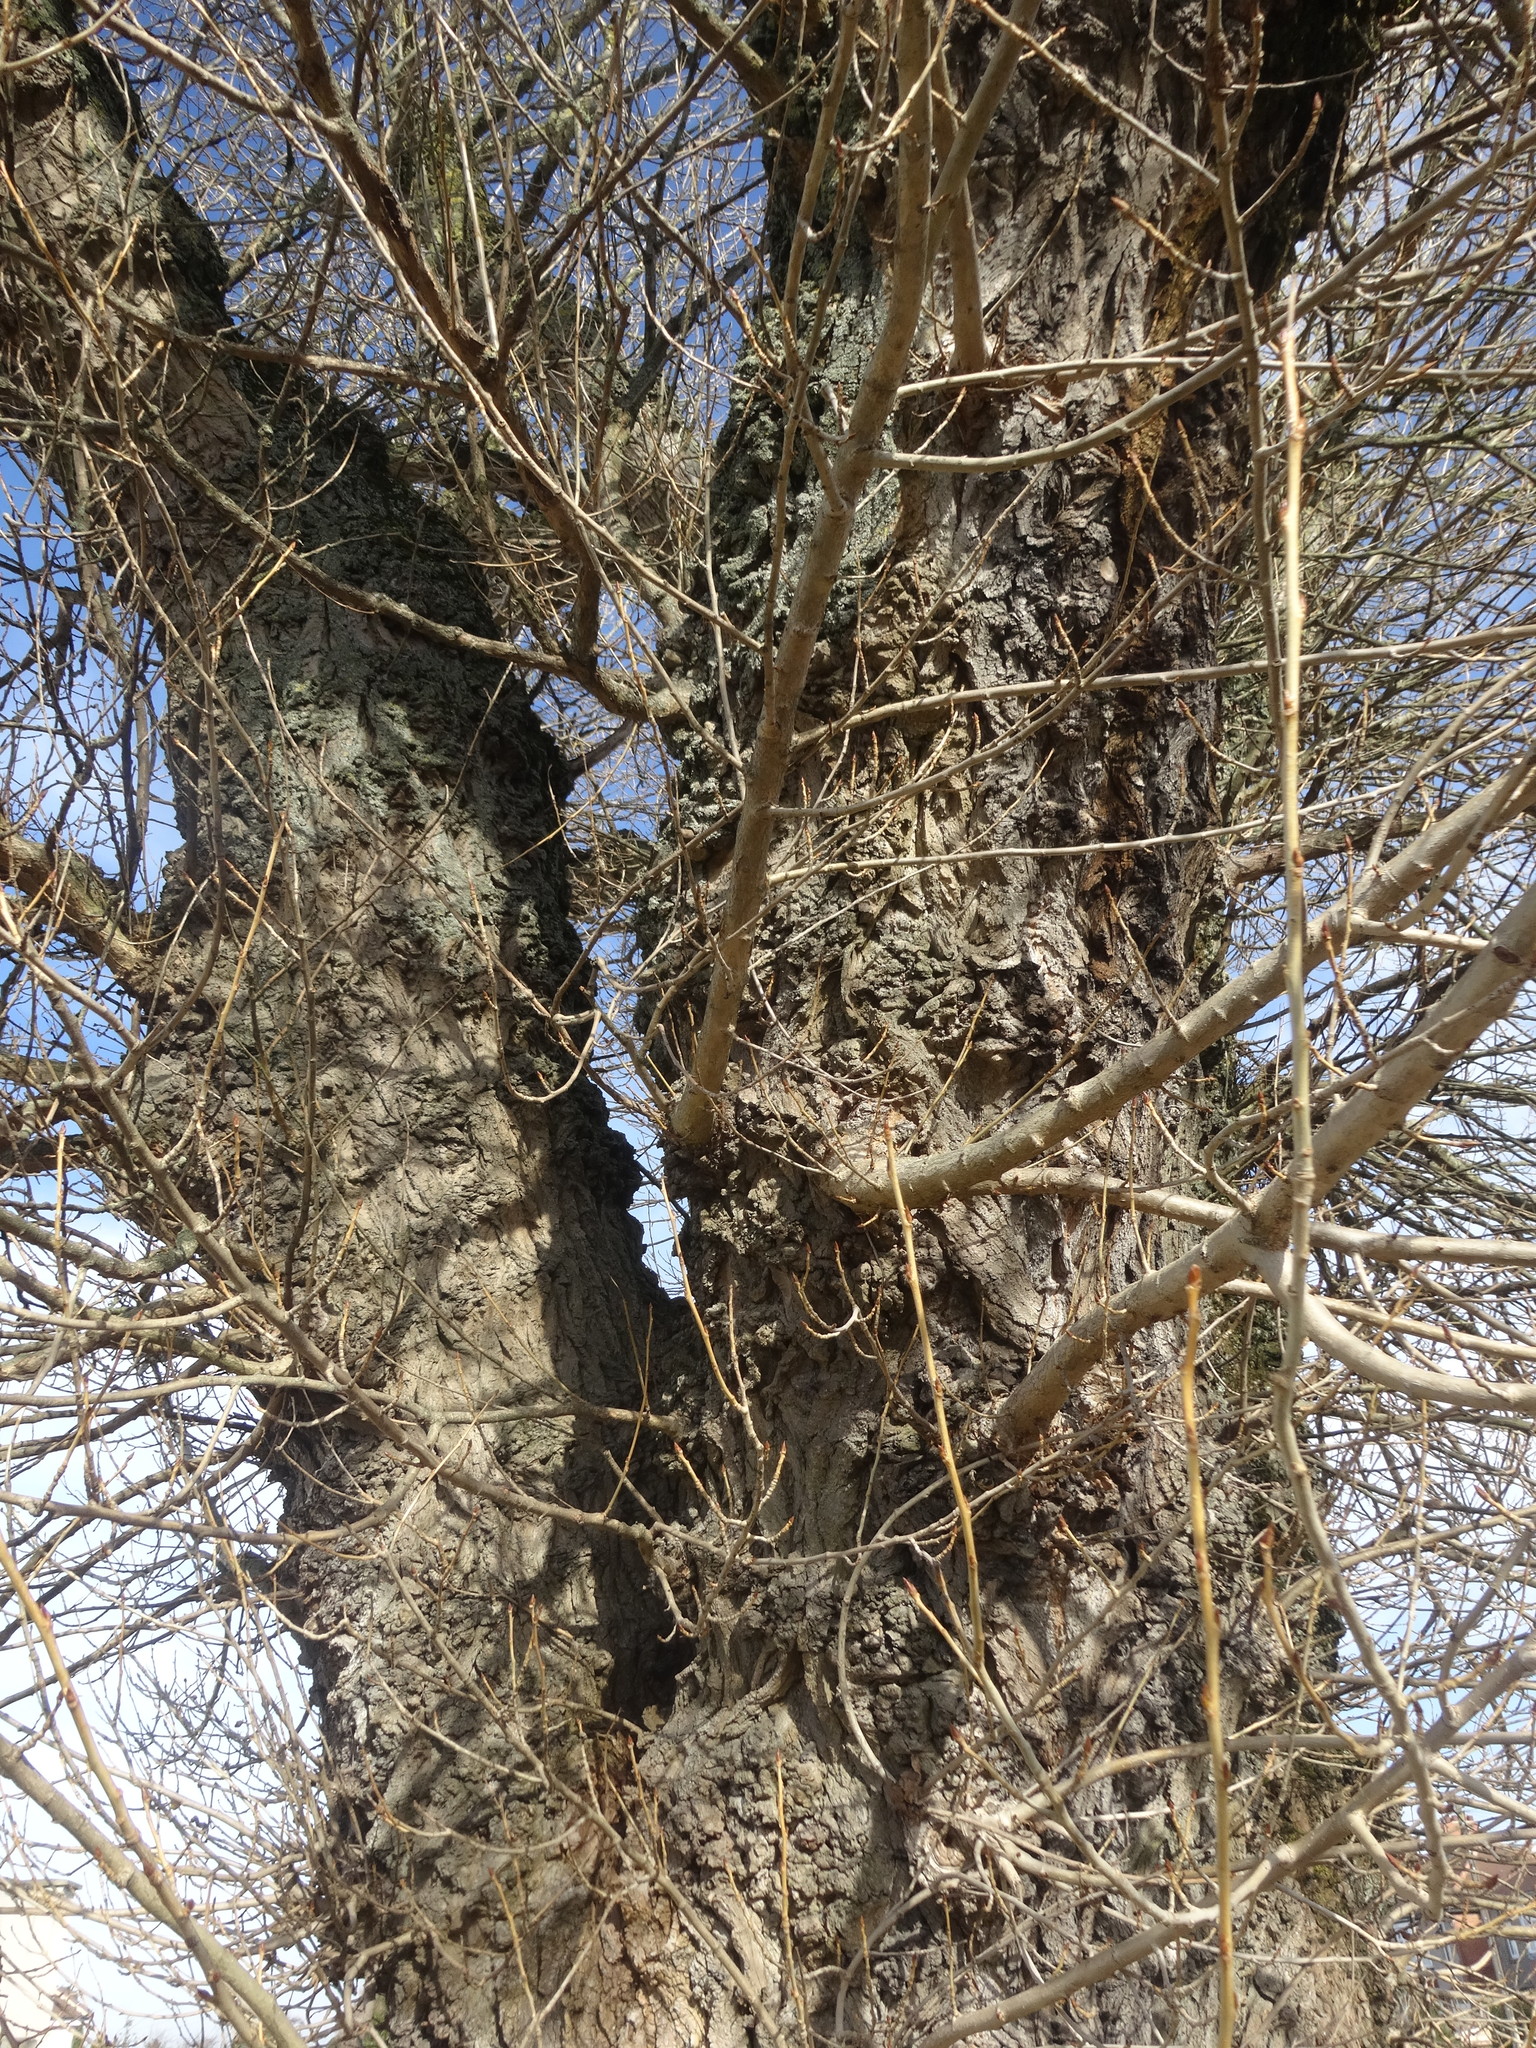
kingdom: Plantae
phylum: Tracheophyta
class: Magnoliopsida
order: Malpighiales
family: Salicaceae
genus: Populus
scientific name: Populus nigra
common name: Black poplar
